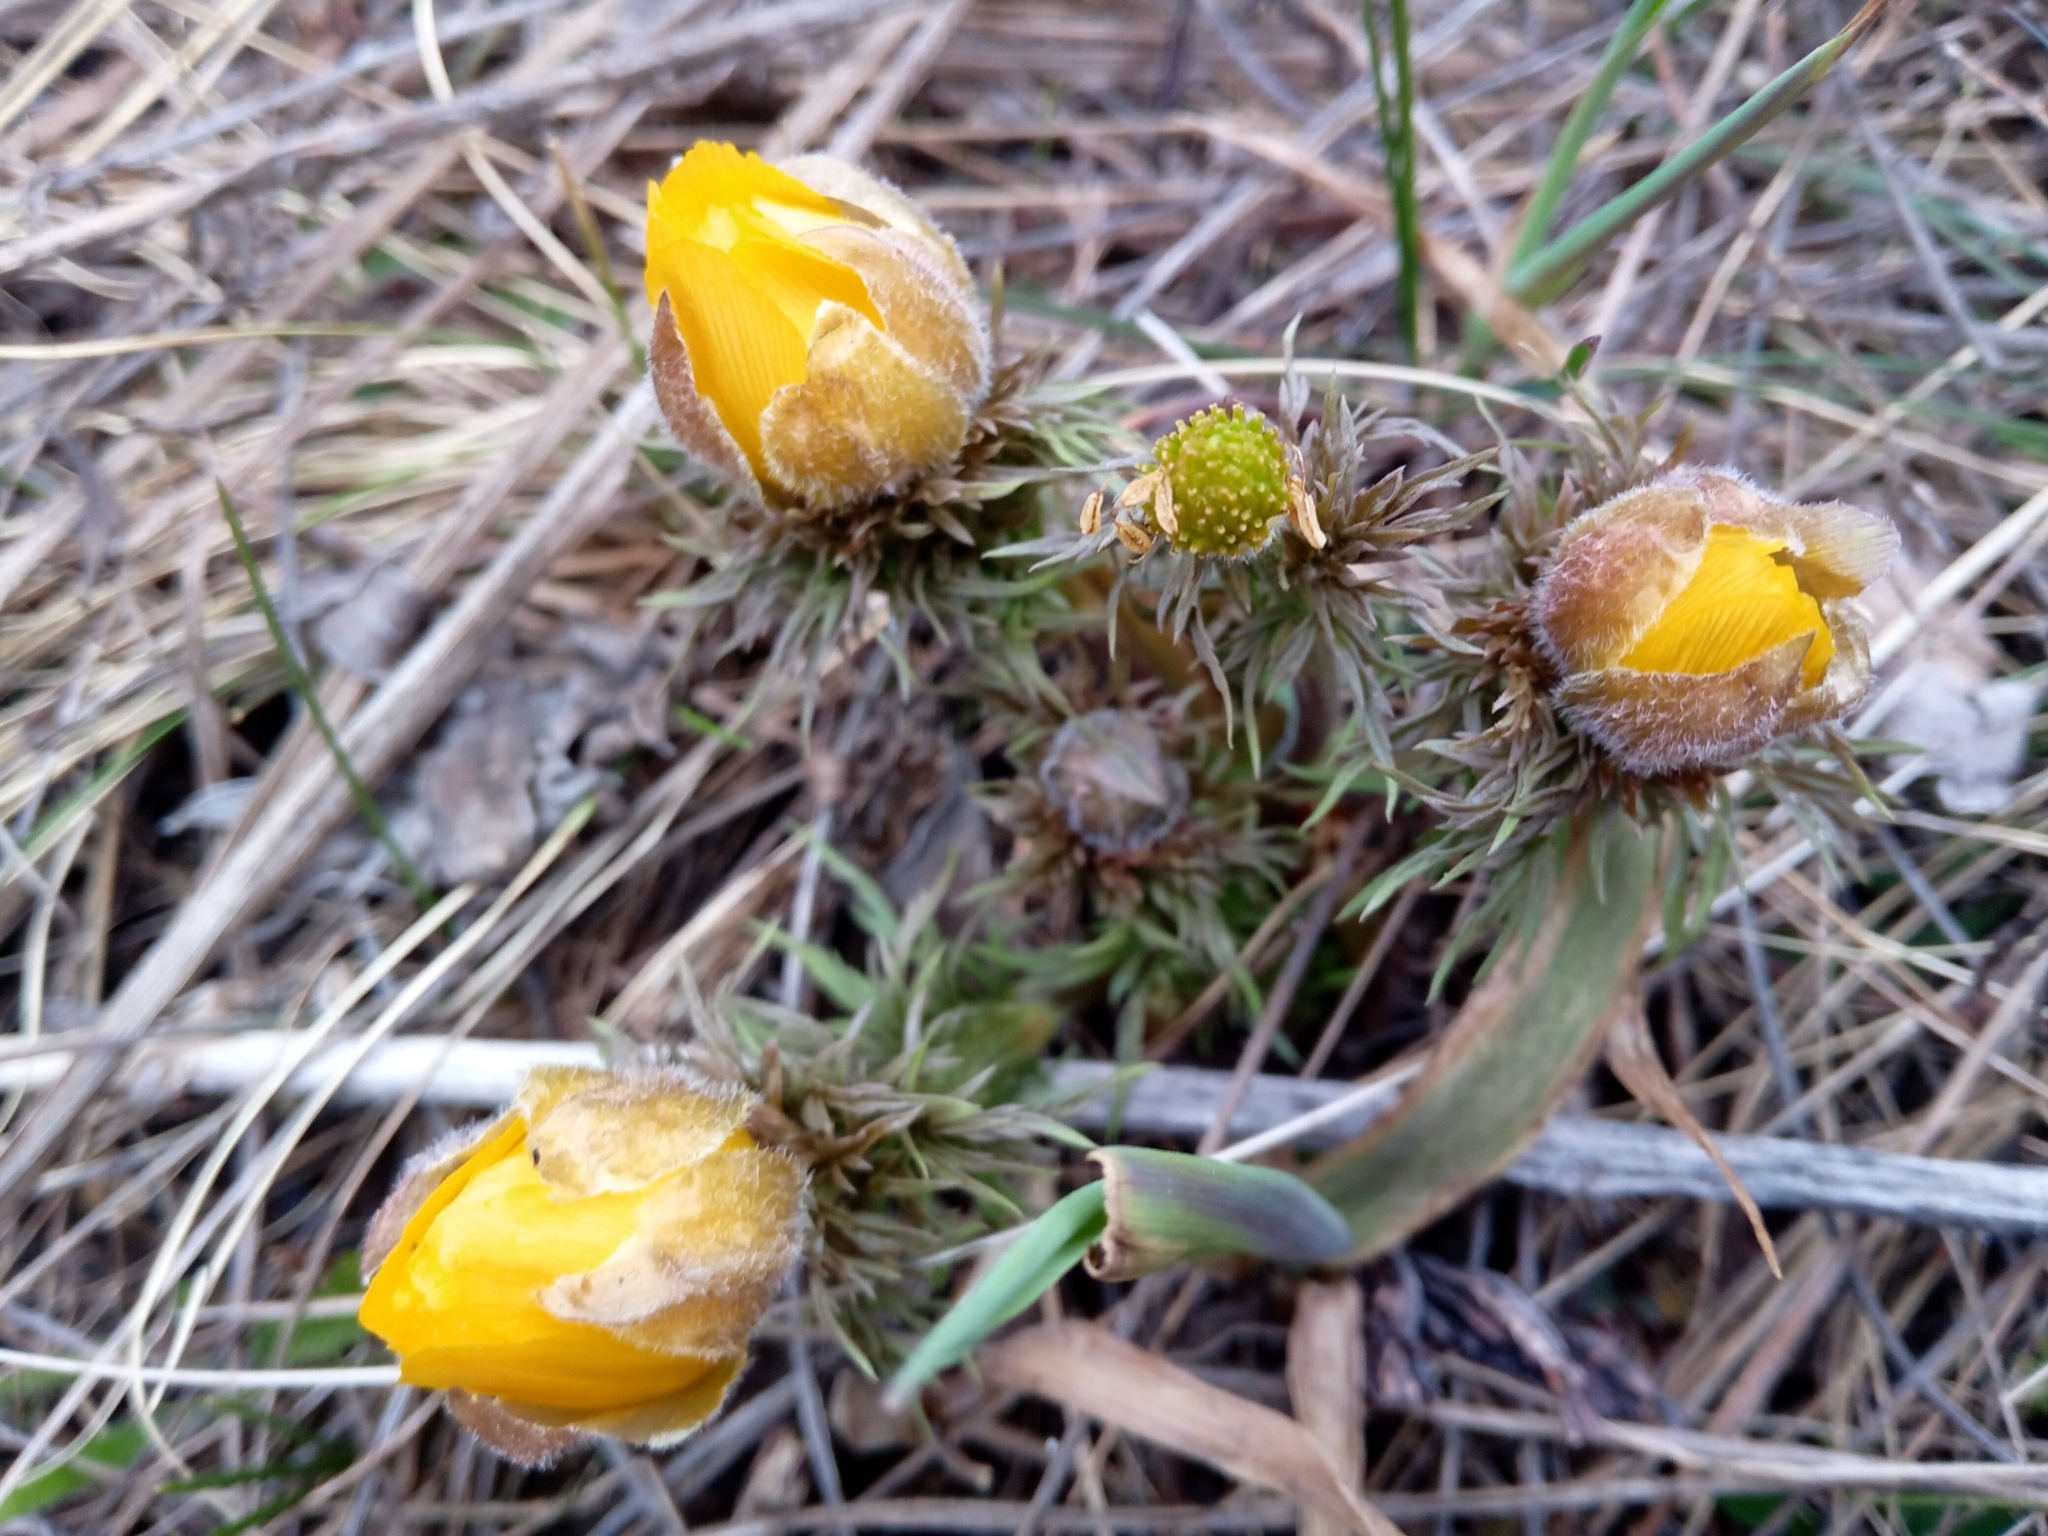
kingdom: Plantae
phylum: Tracheophyta
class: Magnoliopsida
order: Ranunculales
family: Ranunculaceae
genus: Adonis
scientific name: Adonis volgensis
